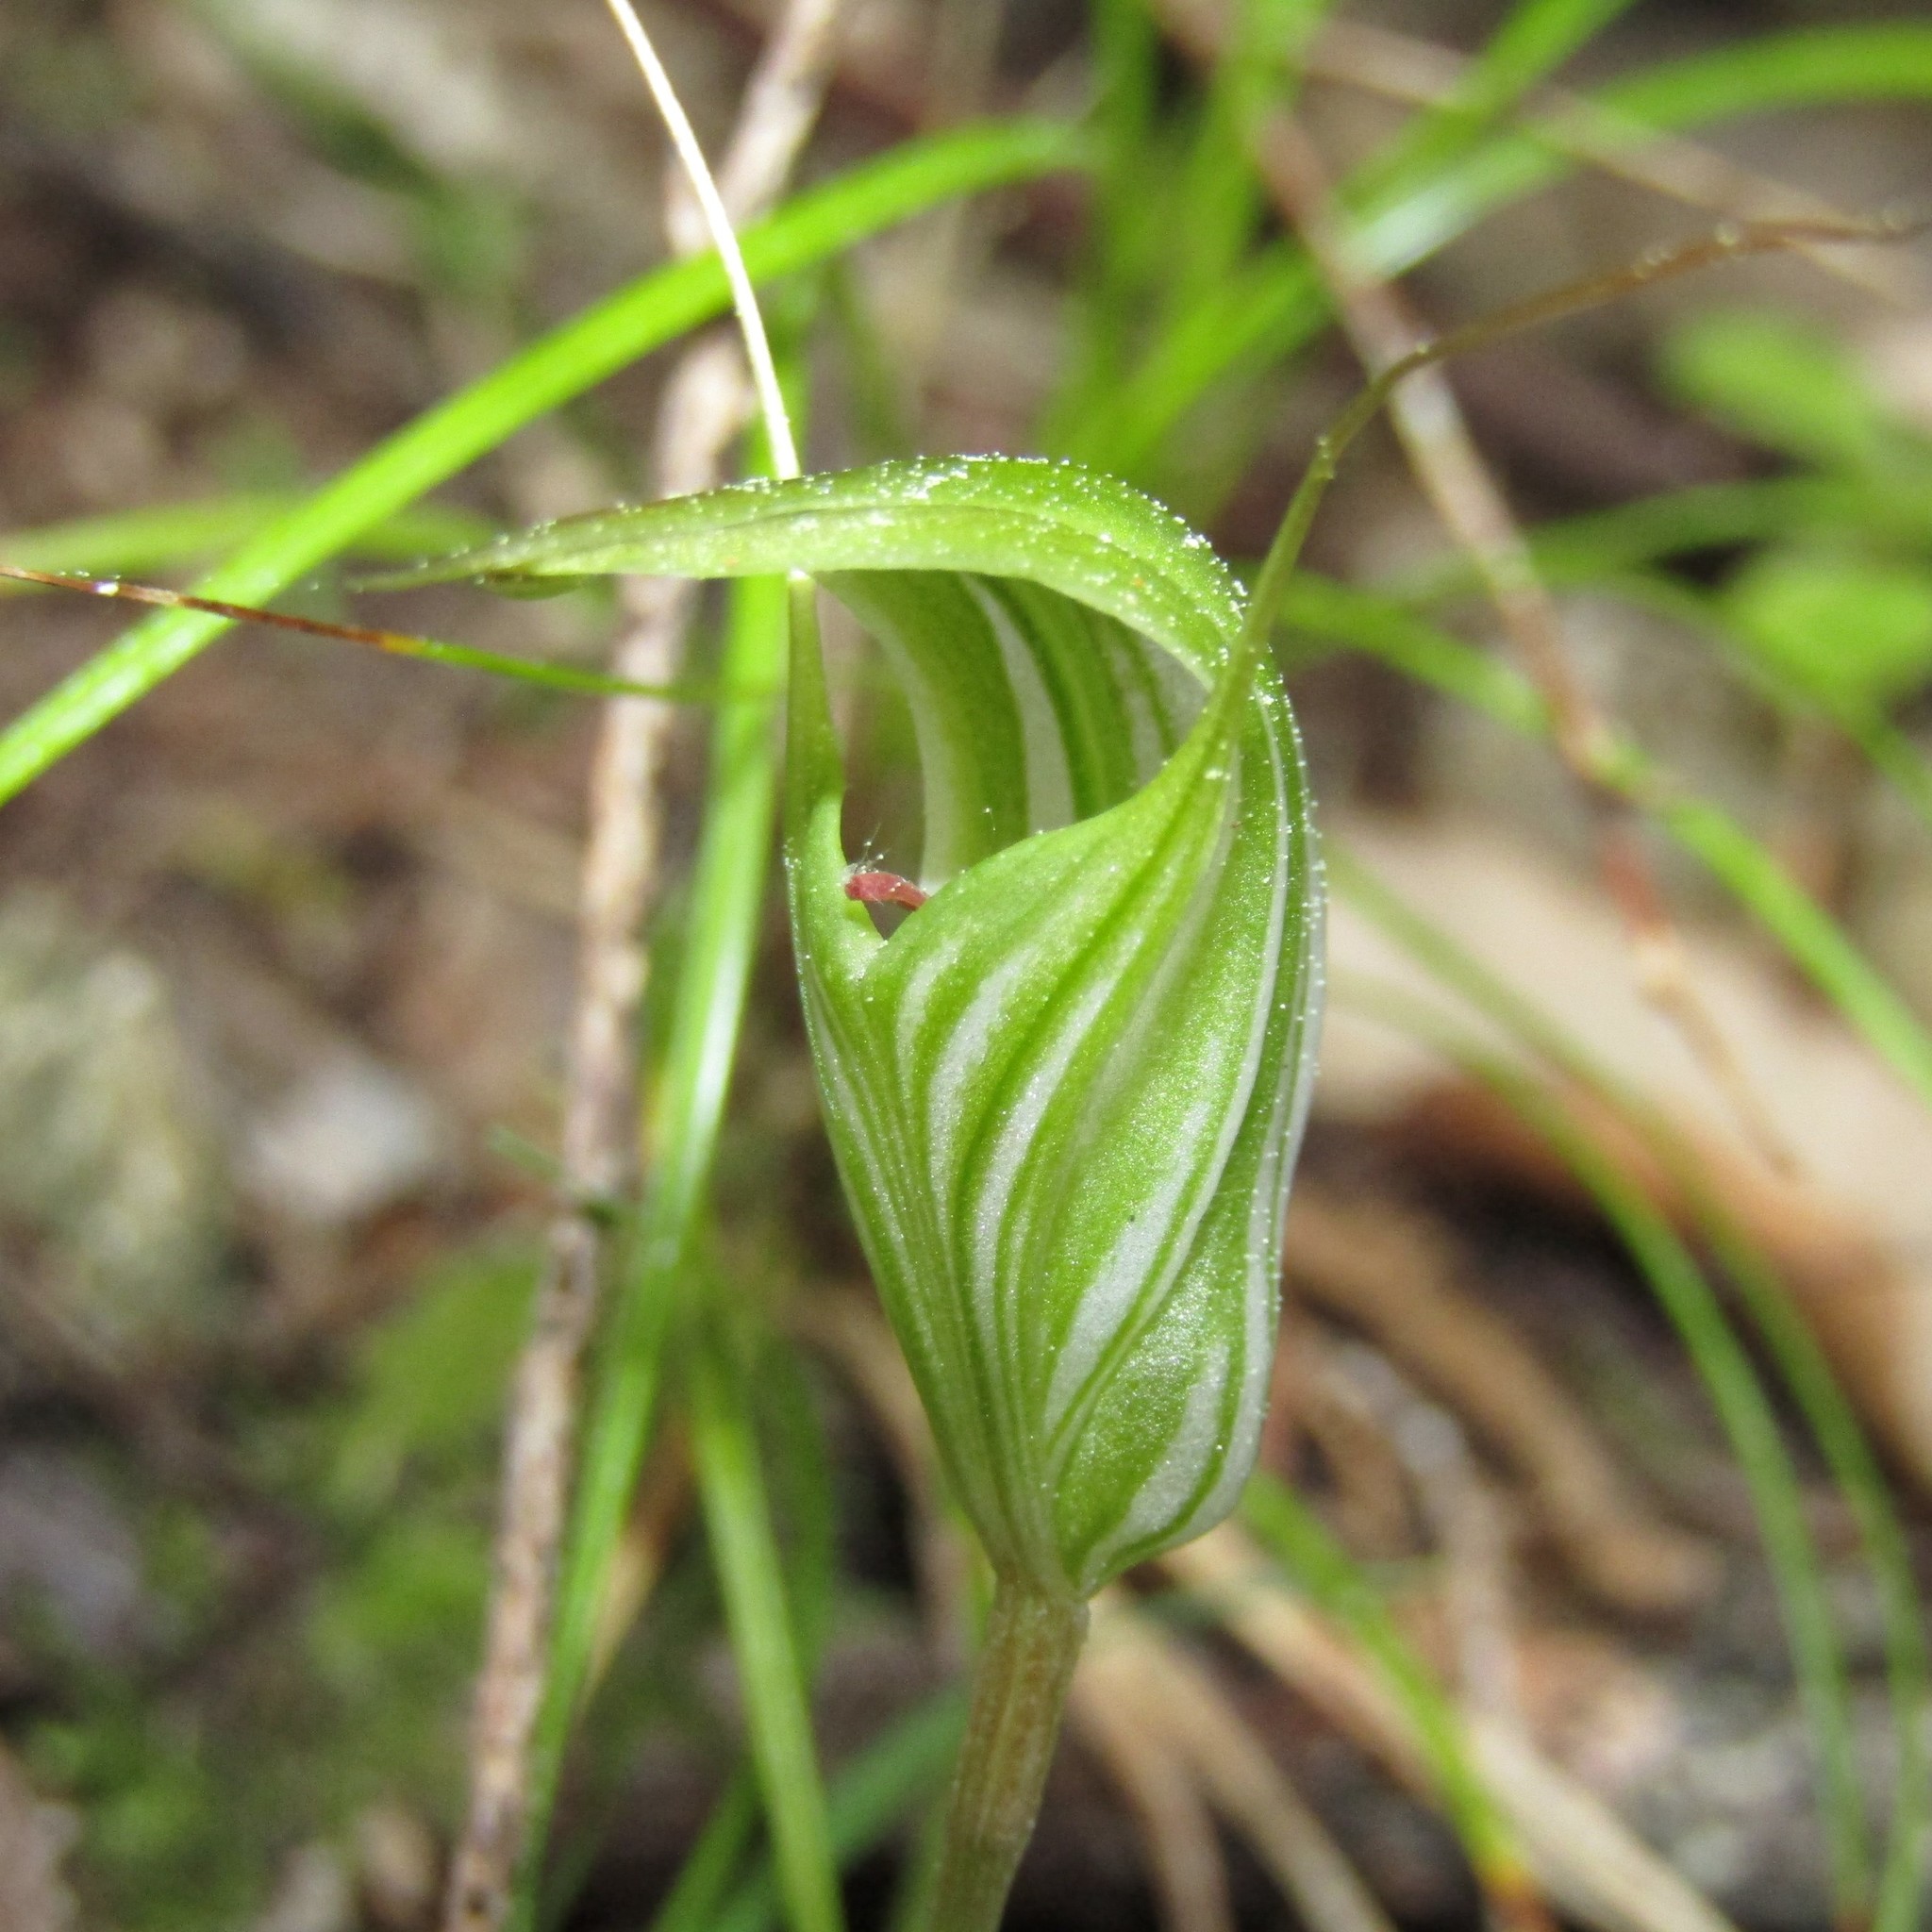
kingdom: Plantae
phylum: Tracheophyta
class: Liliopsida
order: Asparagales
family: Orchidaceae
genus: Pterostylis
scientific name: Pterostylis alobula
